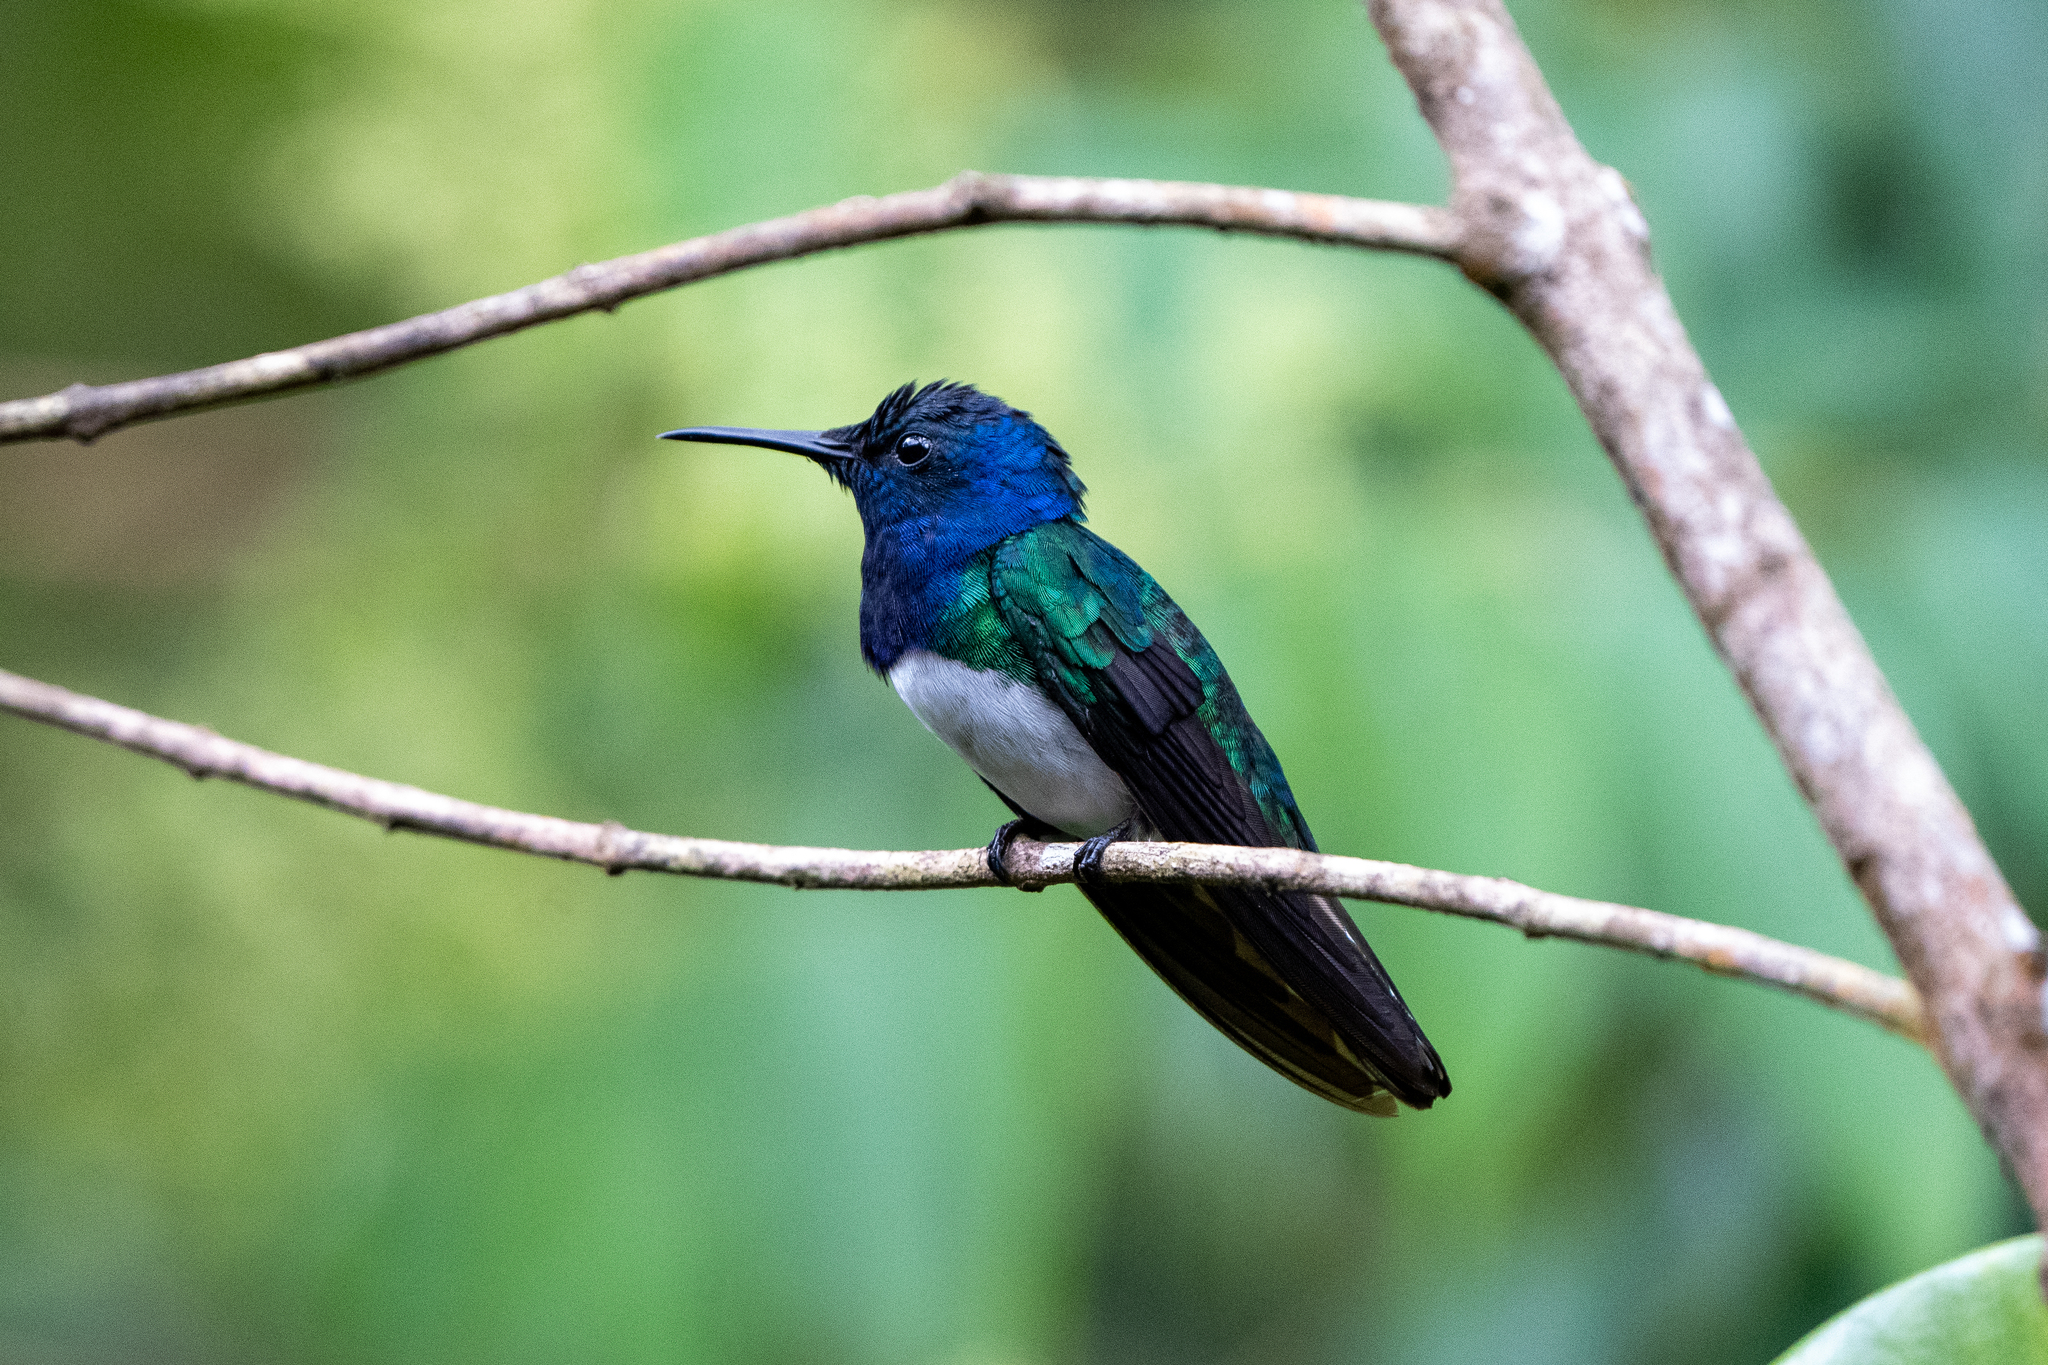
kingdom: Animalia
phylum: Chordata
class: Aves
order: Apodiformes
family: Trochilidae
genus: Florisuga
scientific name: Florisuga mellivora
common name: White-necked jacobin
